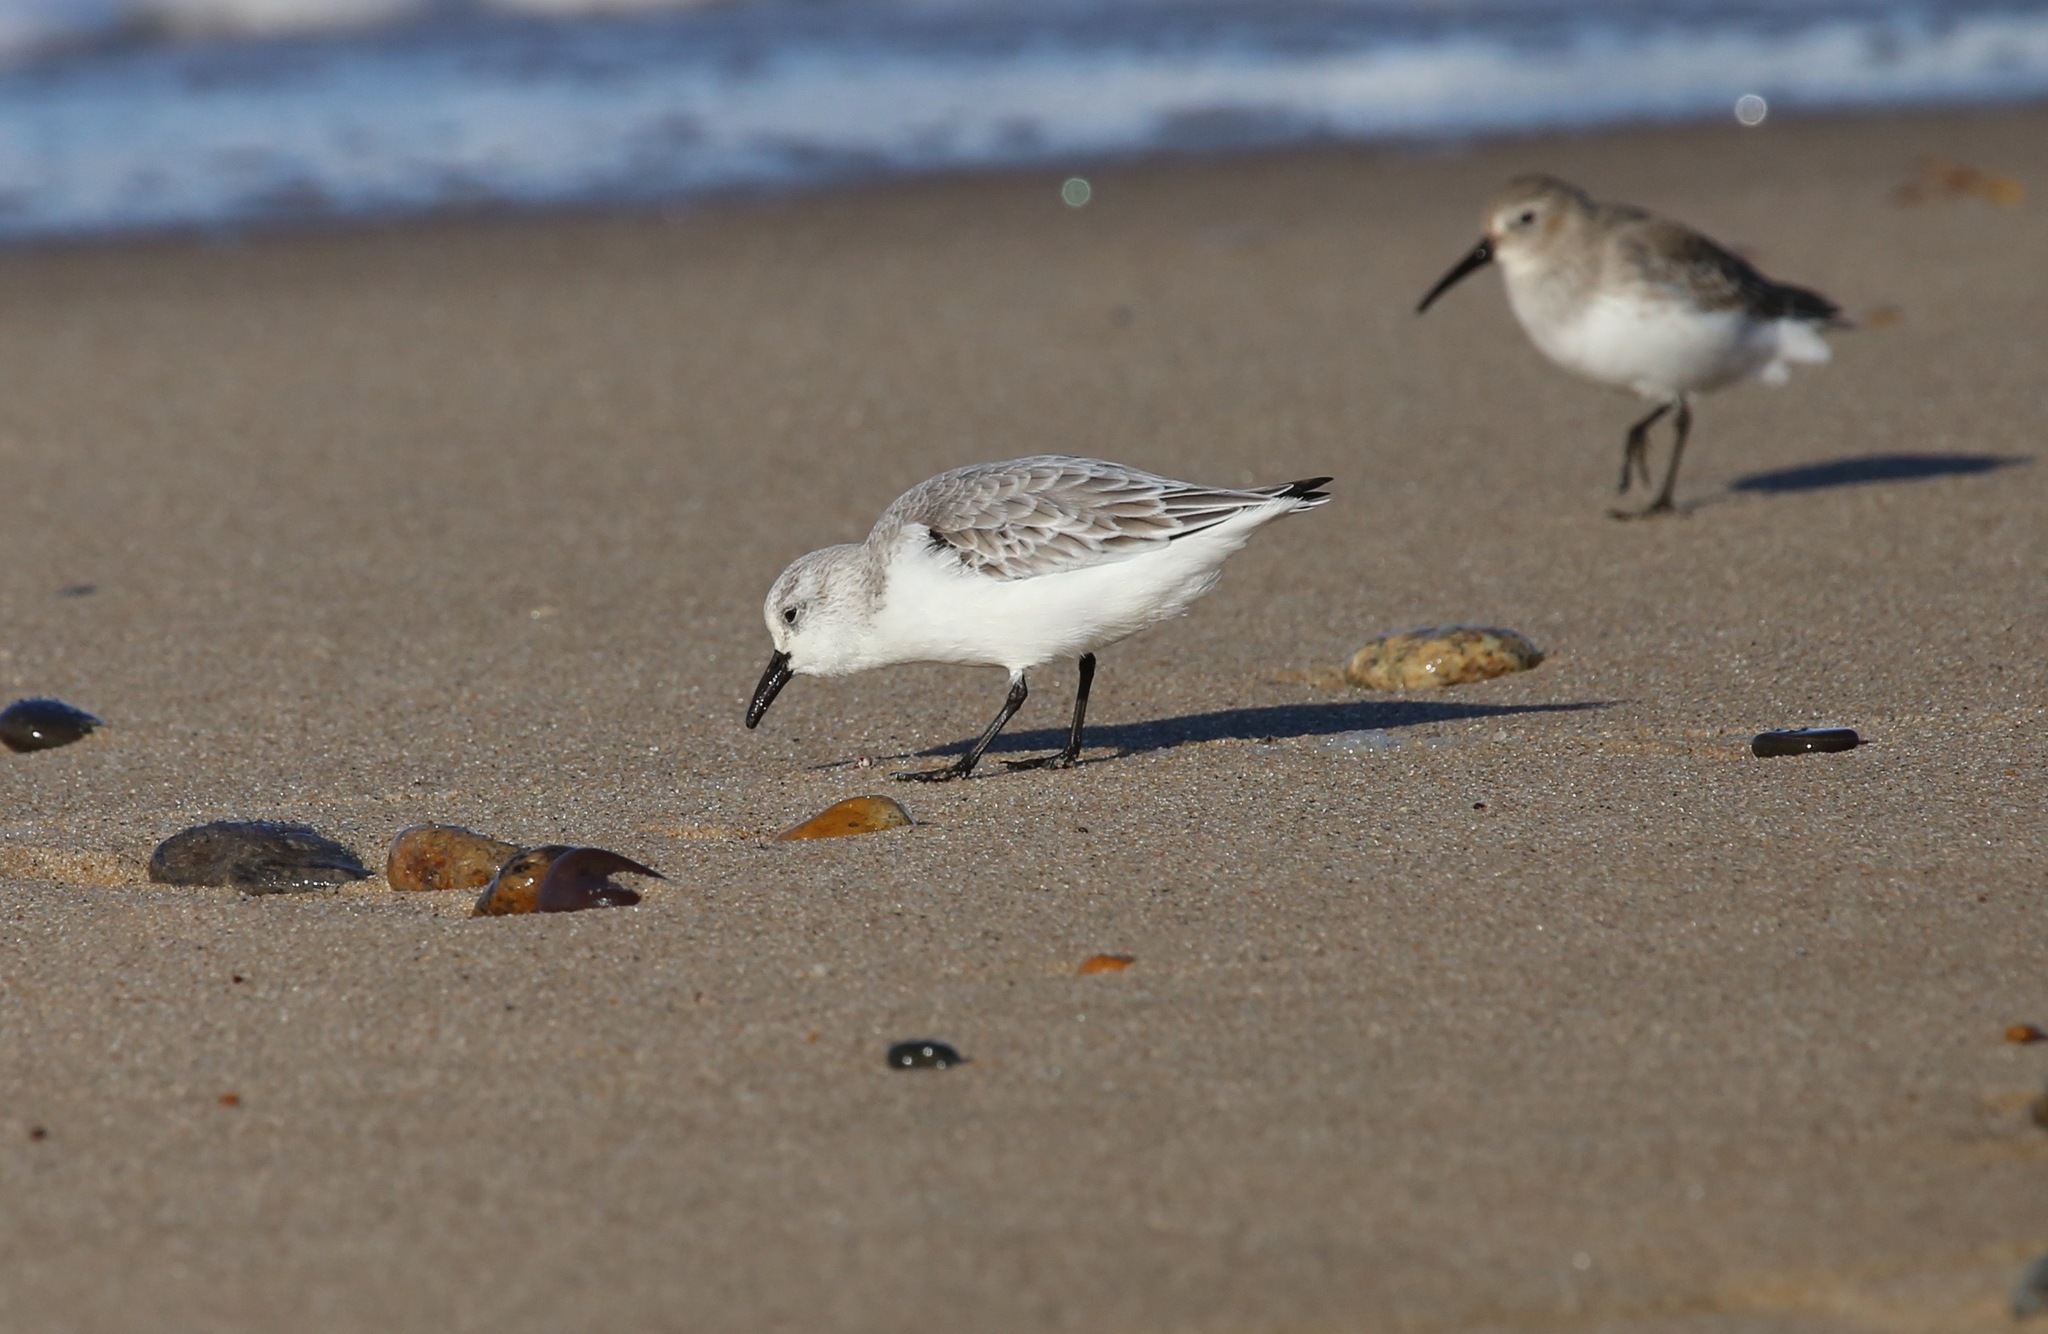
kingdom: Animalia
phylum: Chordata
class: Aves
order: Charadriiformes
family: Scolopacidae
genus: Calidris
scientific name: Calidris alba
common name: Sanderling
